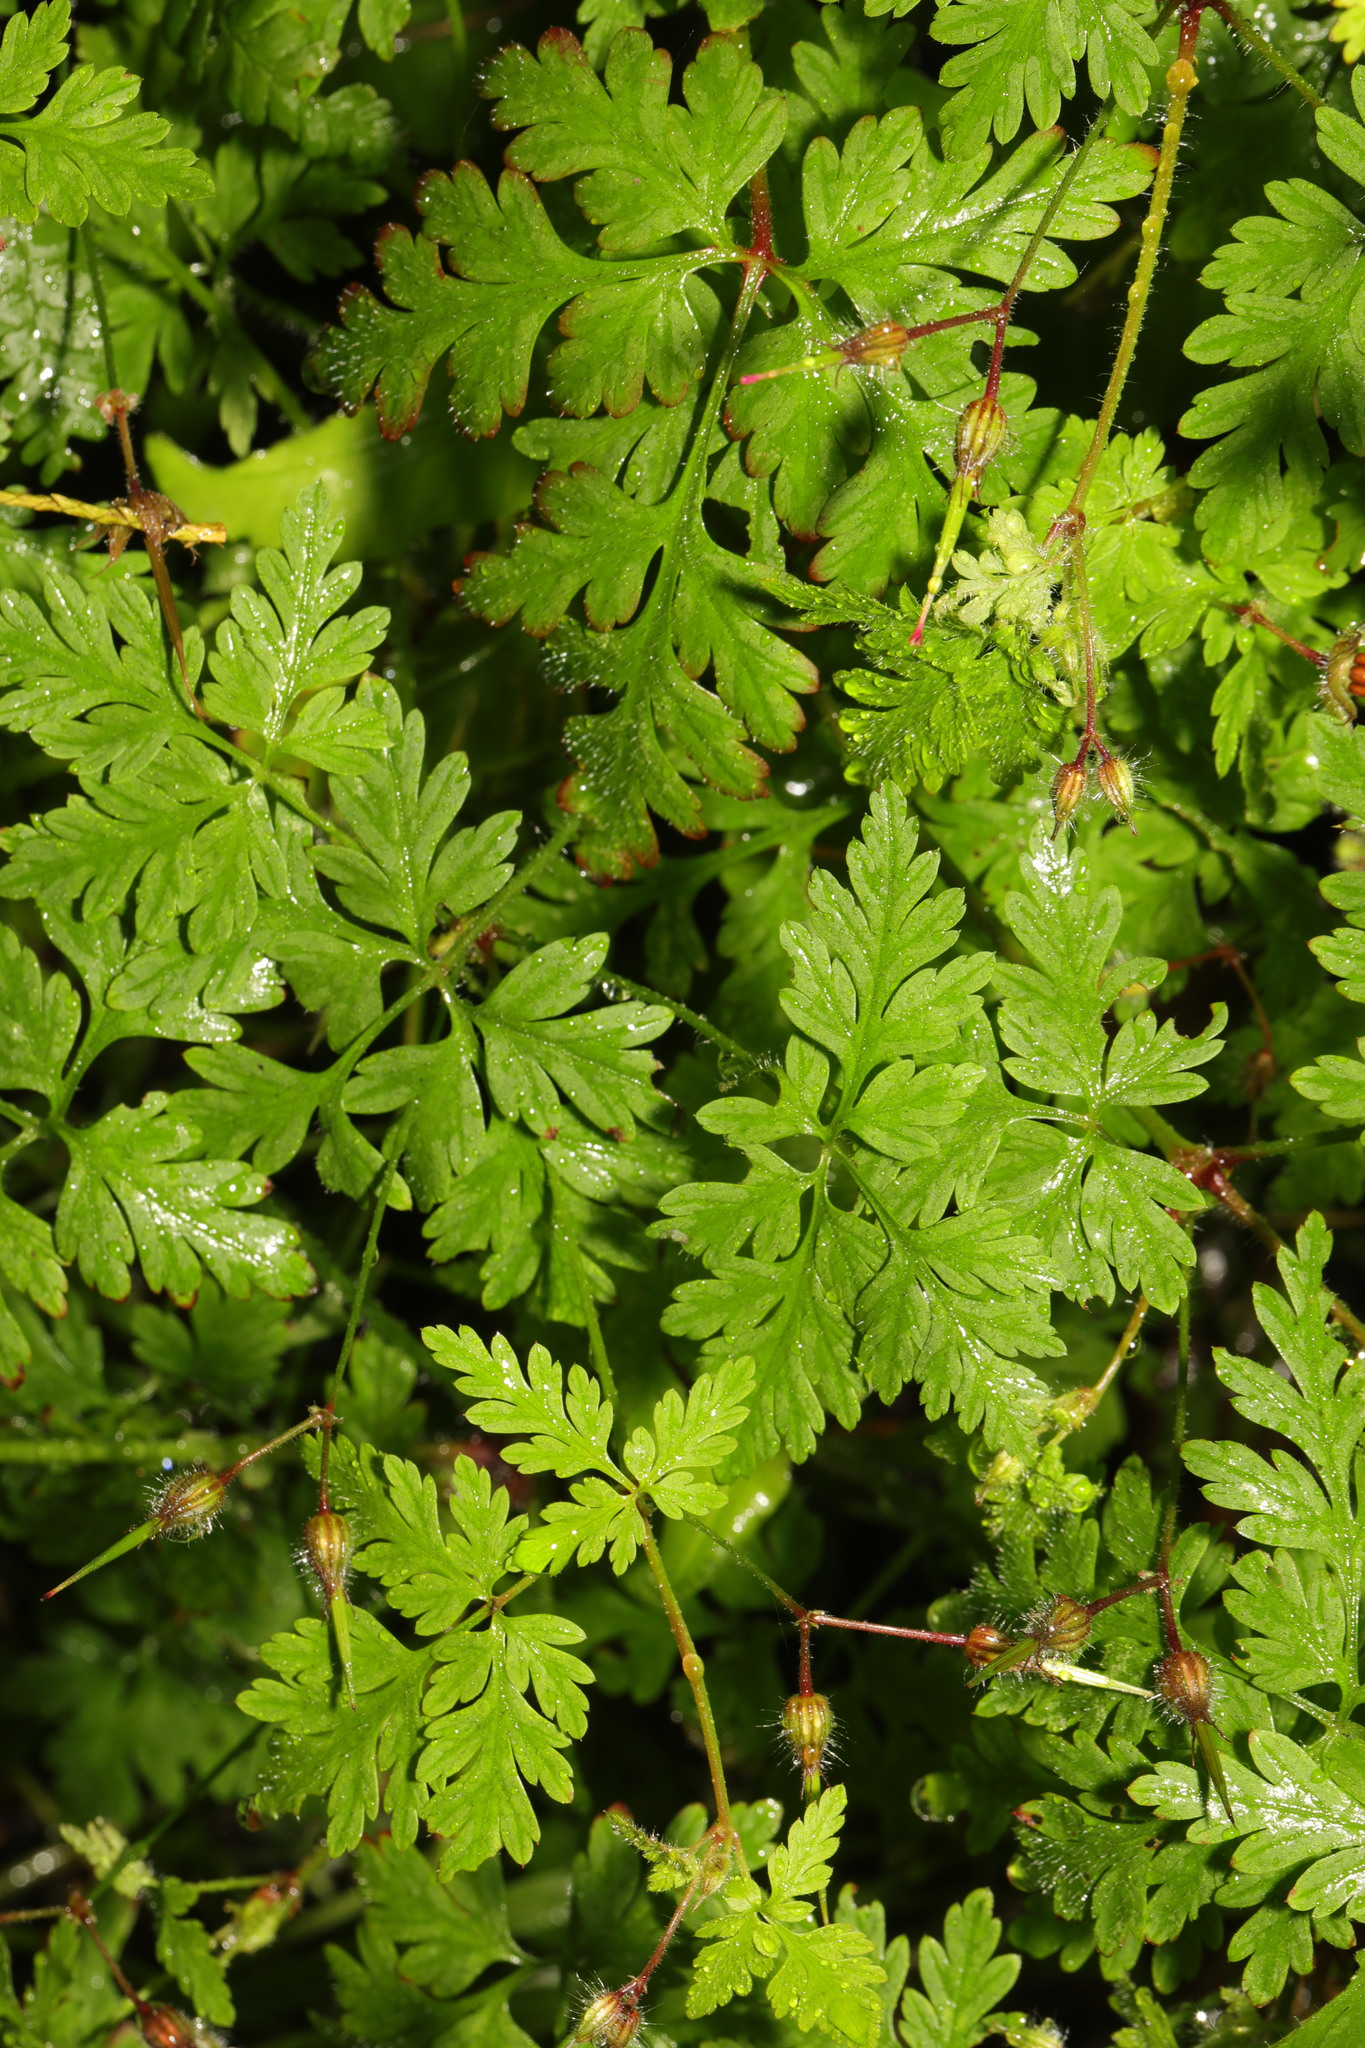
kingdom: Plantae
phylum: Tracheophyta
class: Magnoliopsida
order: Geraniales
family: Geraniaceae
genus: Geranium
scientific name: Geranium robertianum
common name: Herb-robert
